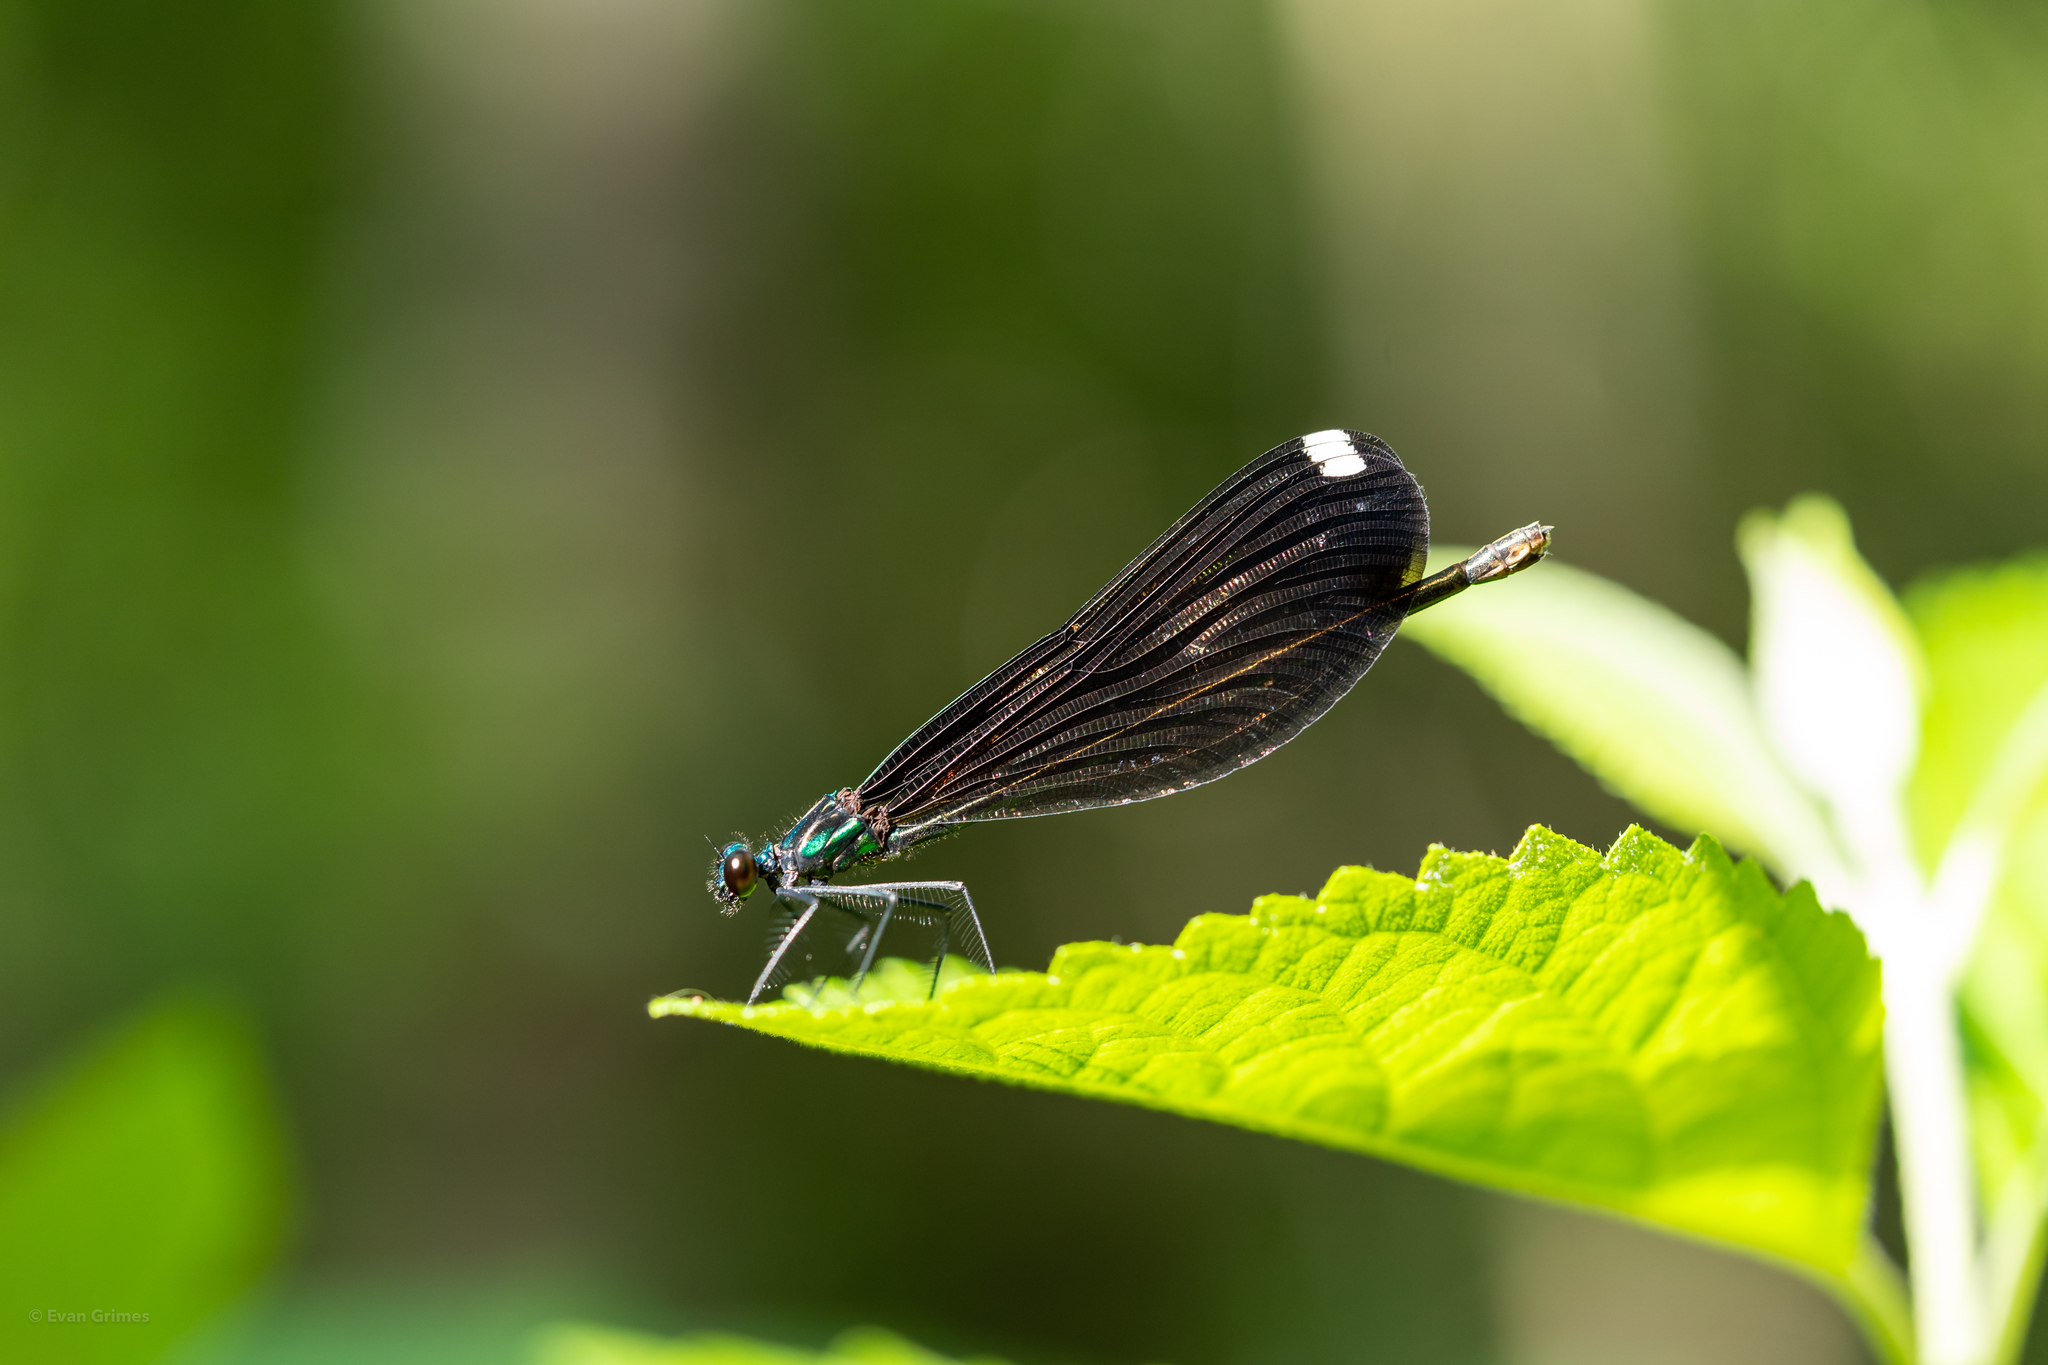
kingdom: Animalia
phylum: Arthropoda
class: Insecta
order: Odonata
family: Calopterygidae
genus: Calopteryx
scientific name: Calopteryx maculata
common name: Ebony jewelwing
